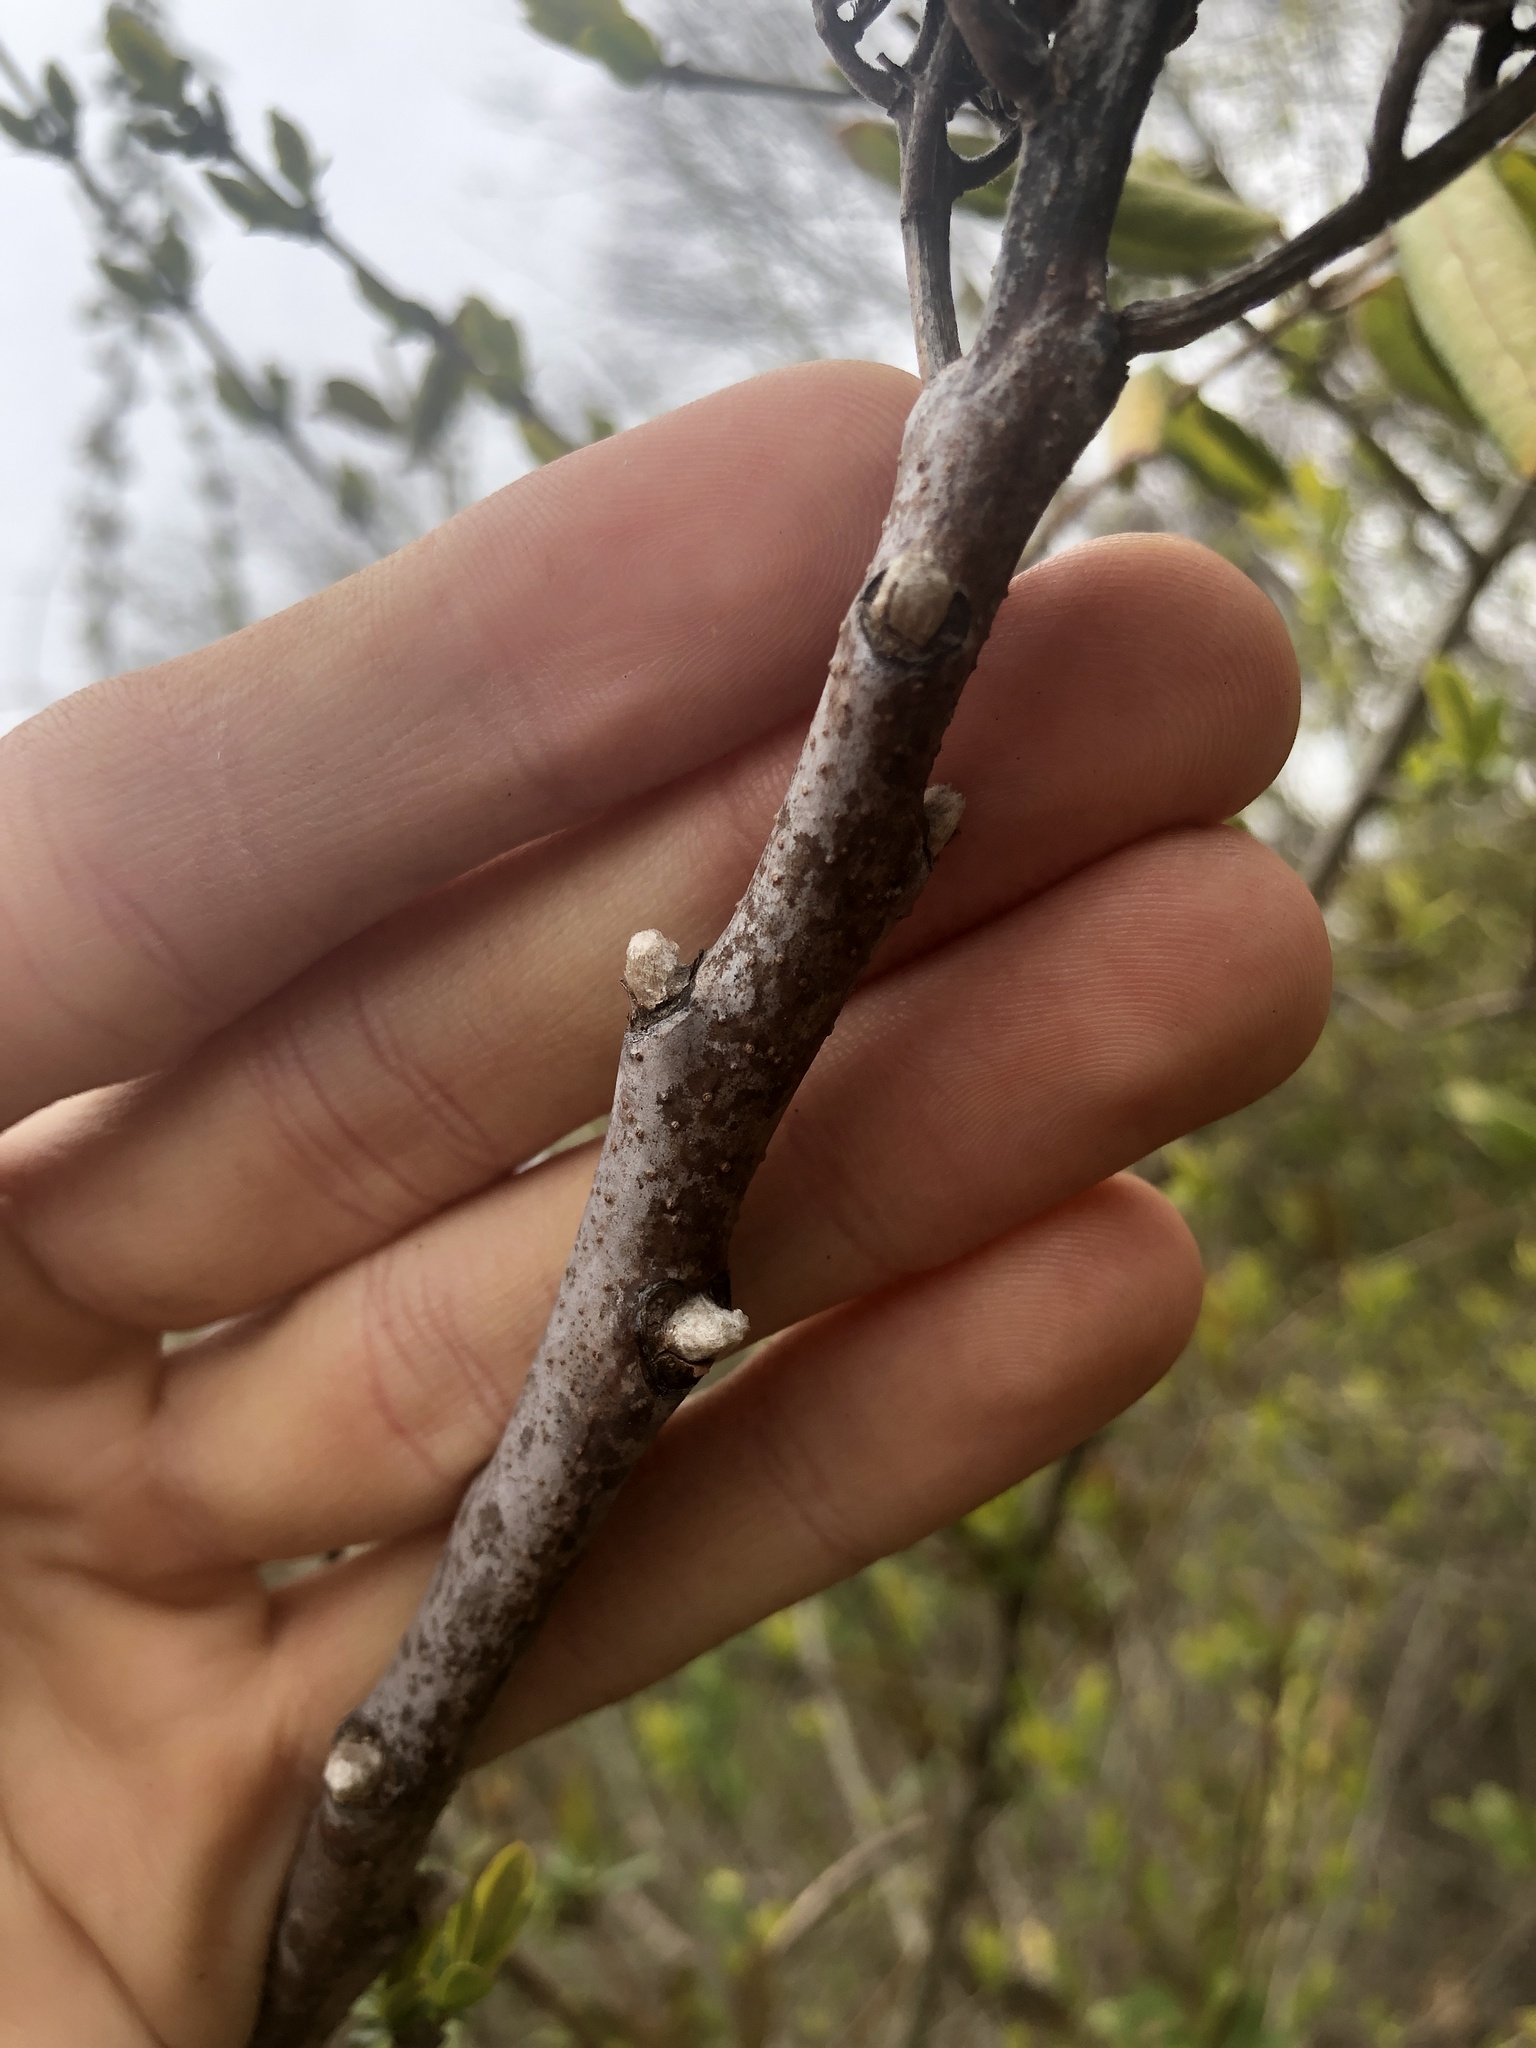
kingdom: Plantae
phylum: Tracheophyta
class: Magnoliopsida
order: Sapindales
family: Anacardiaceae
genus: Rhus
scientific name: Rhus glabra
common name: Scarlet sumac
